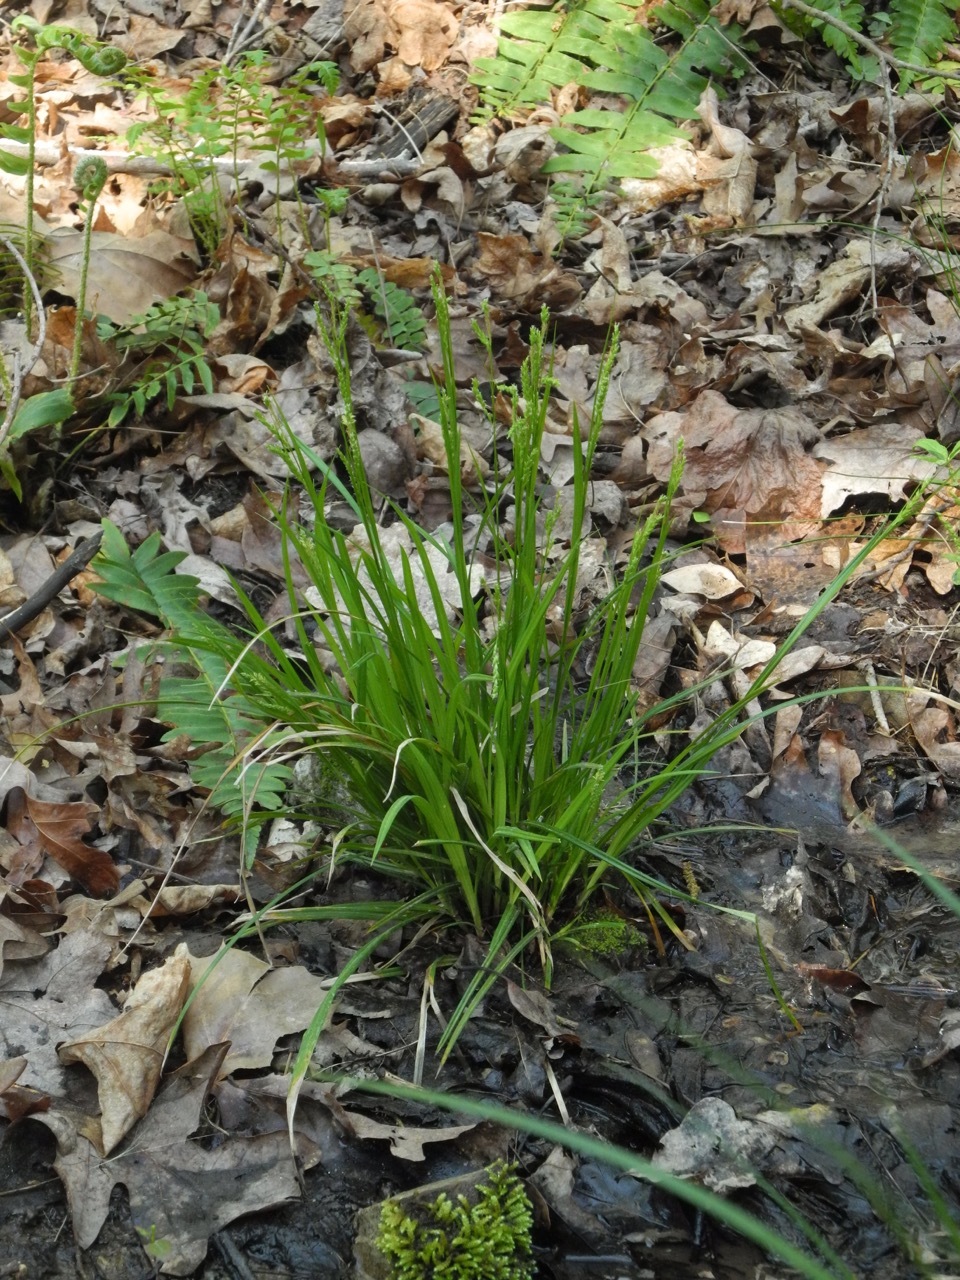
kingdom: Plantae
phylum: Tracheophyta
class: Liliopsida
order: Poales
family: Cyperaceae
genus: Carex
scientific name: Carex blanda
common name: Bland sedge
